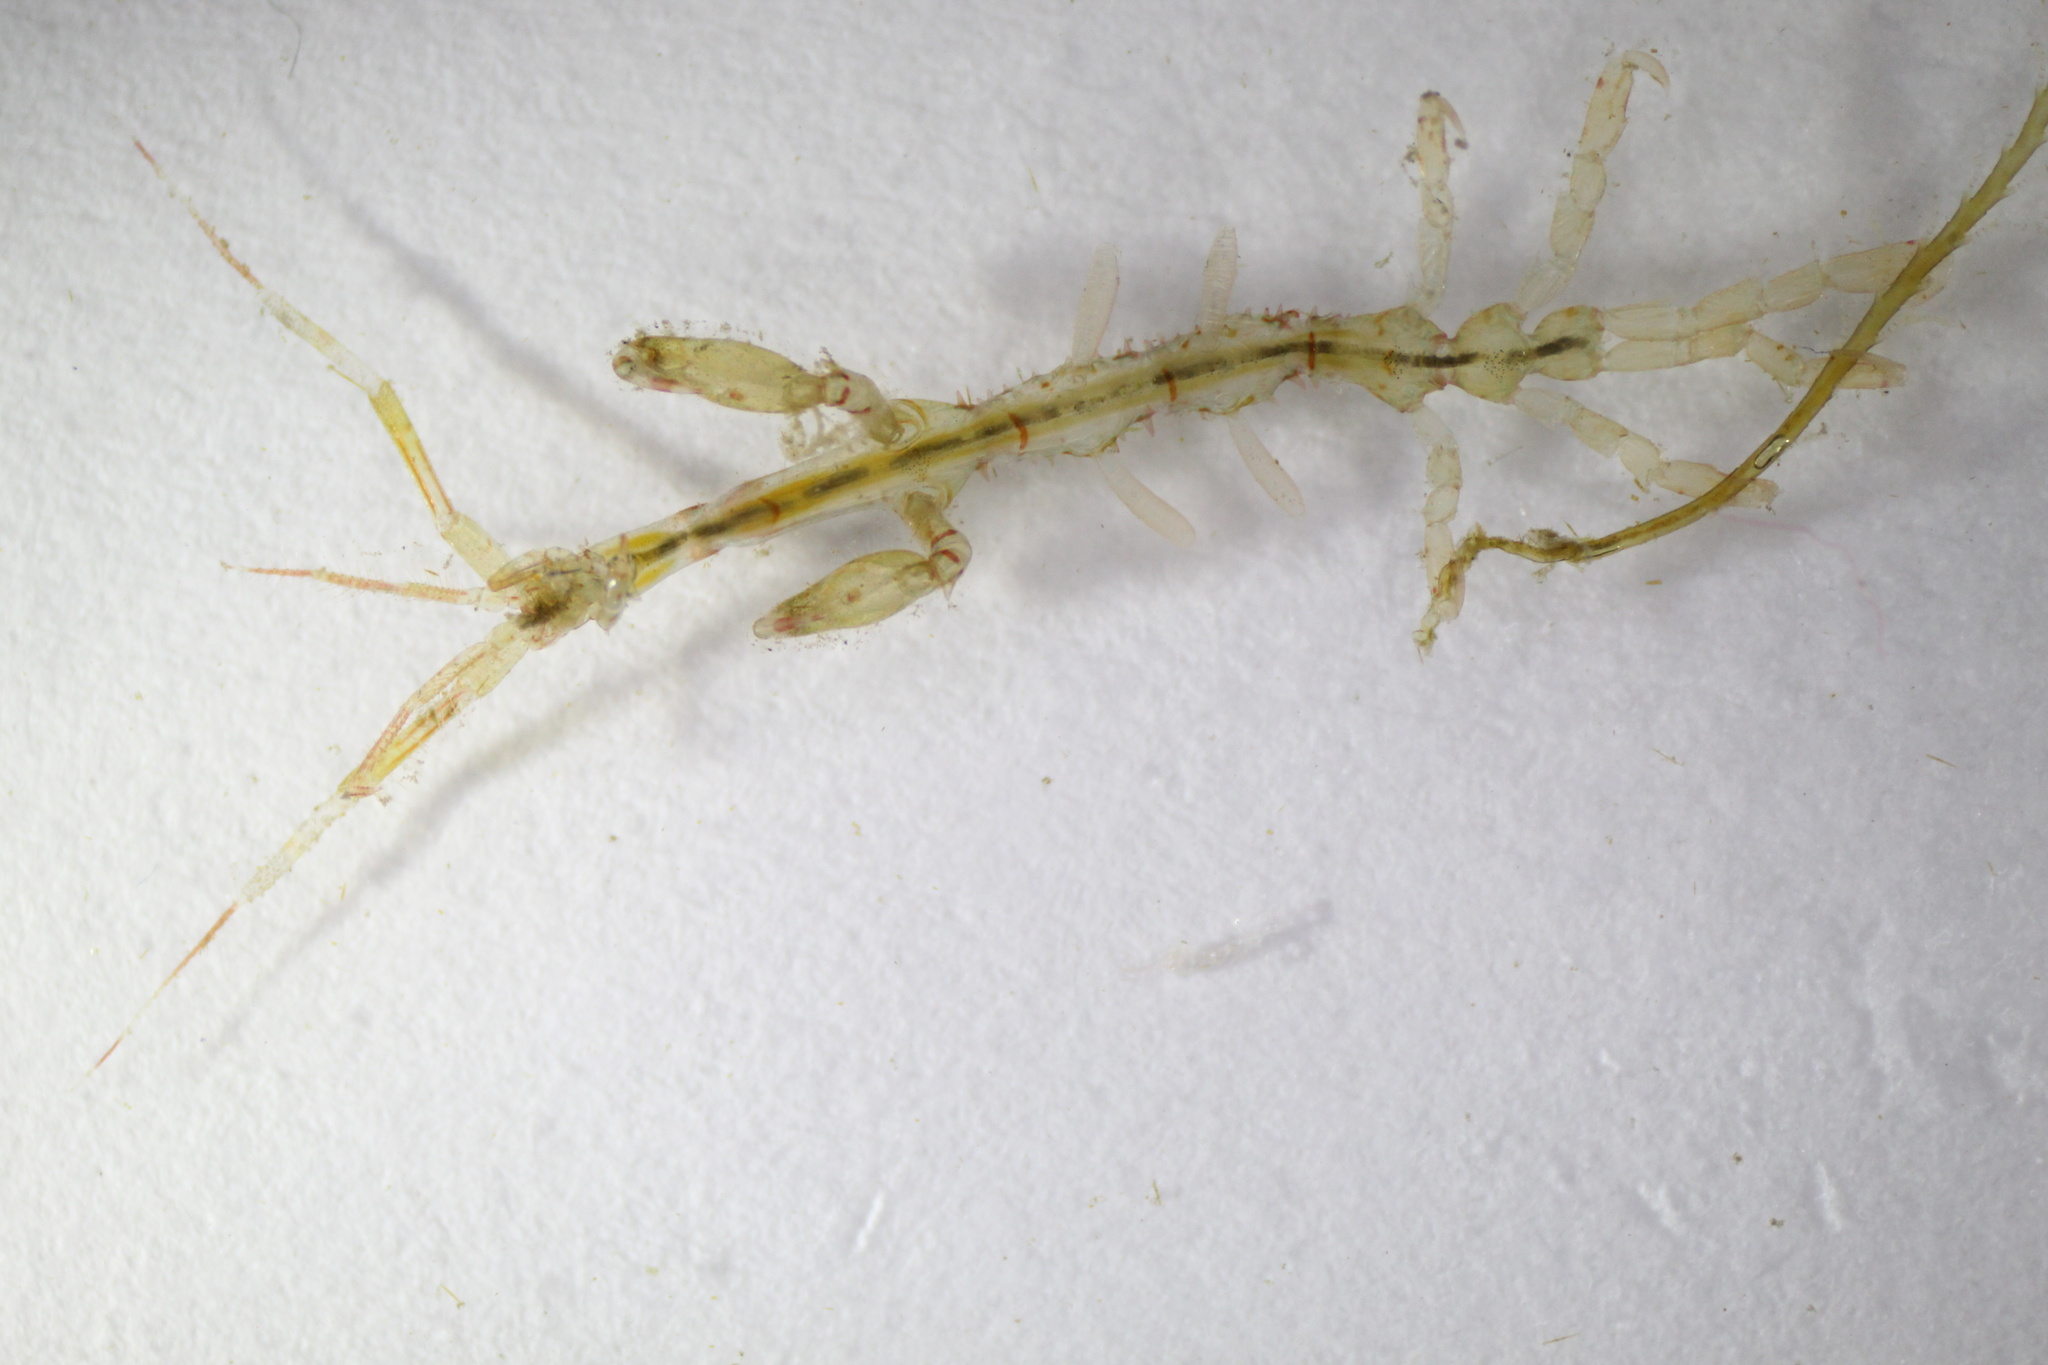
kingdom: Animalia
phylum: Arthropoda
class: Malacostraca
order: Amphipoda
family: Caprellidae
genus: Caprella
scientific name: Caprella mutica
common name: Japanese skeleton shrimp
